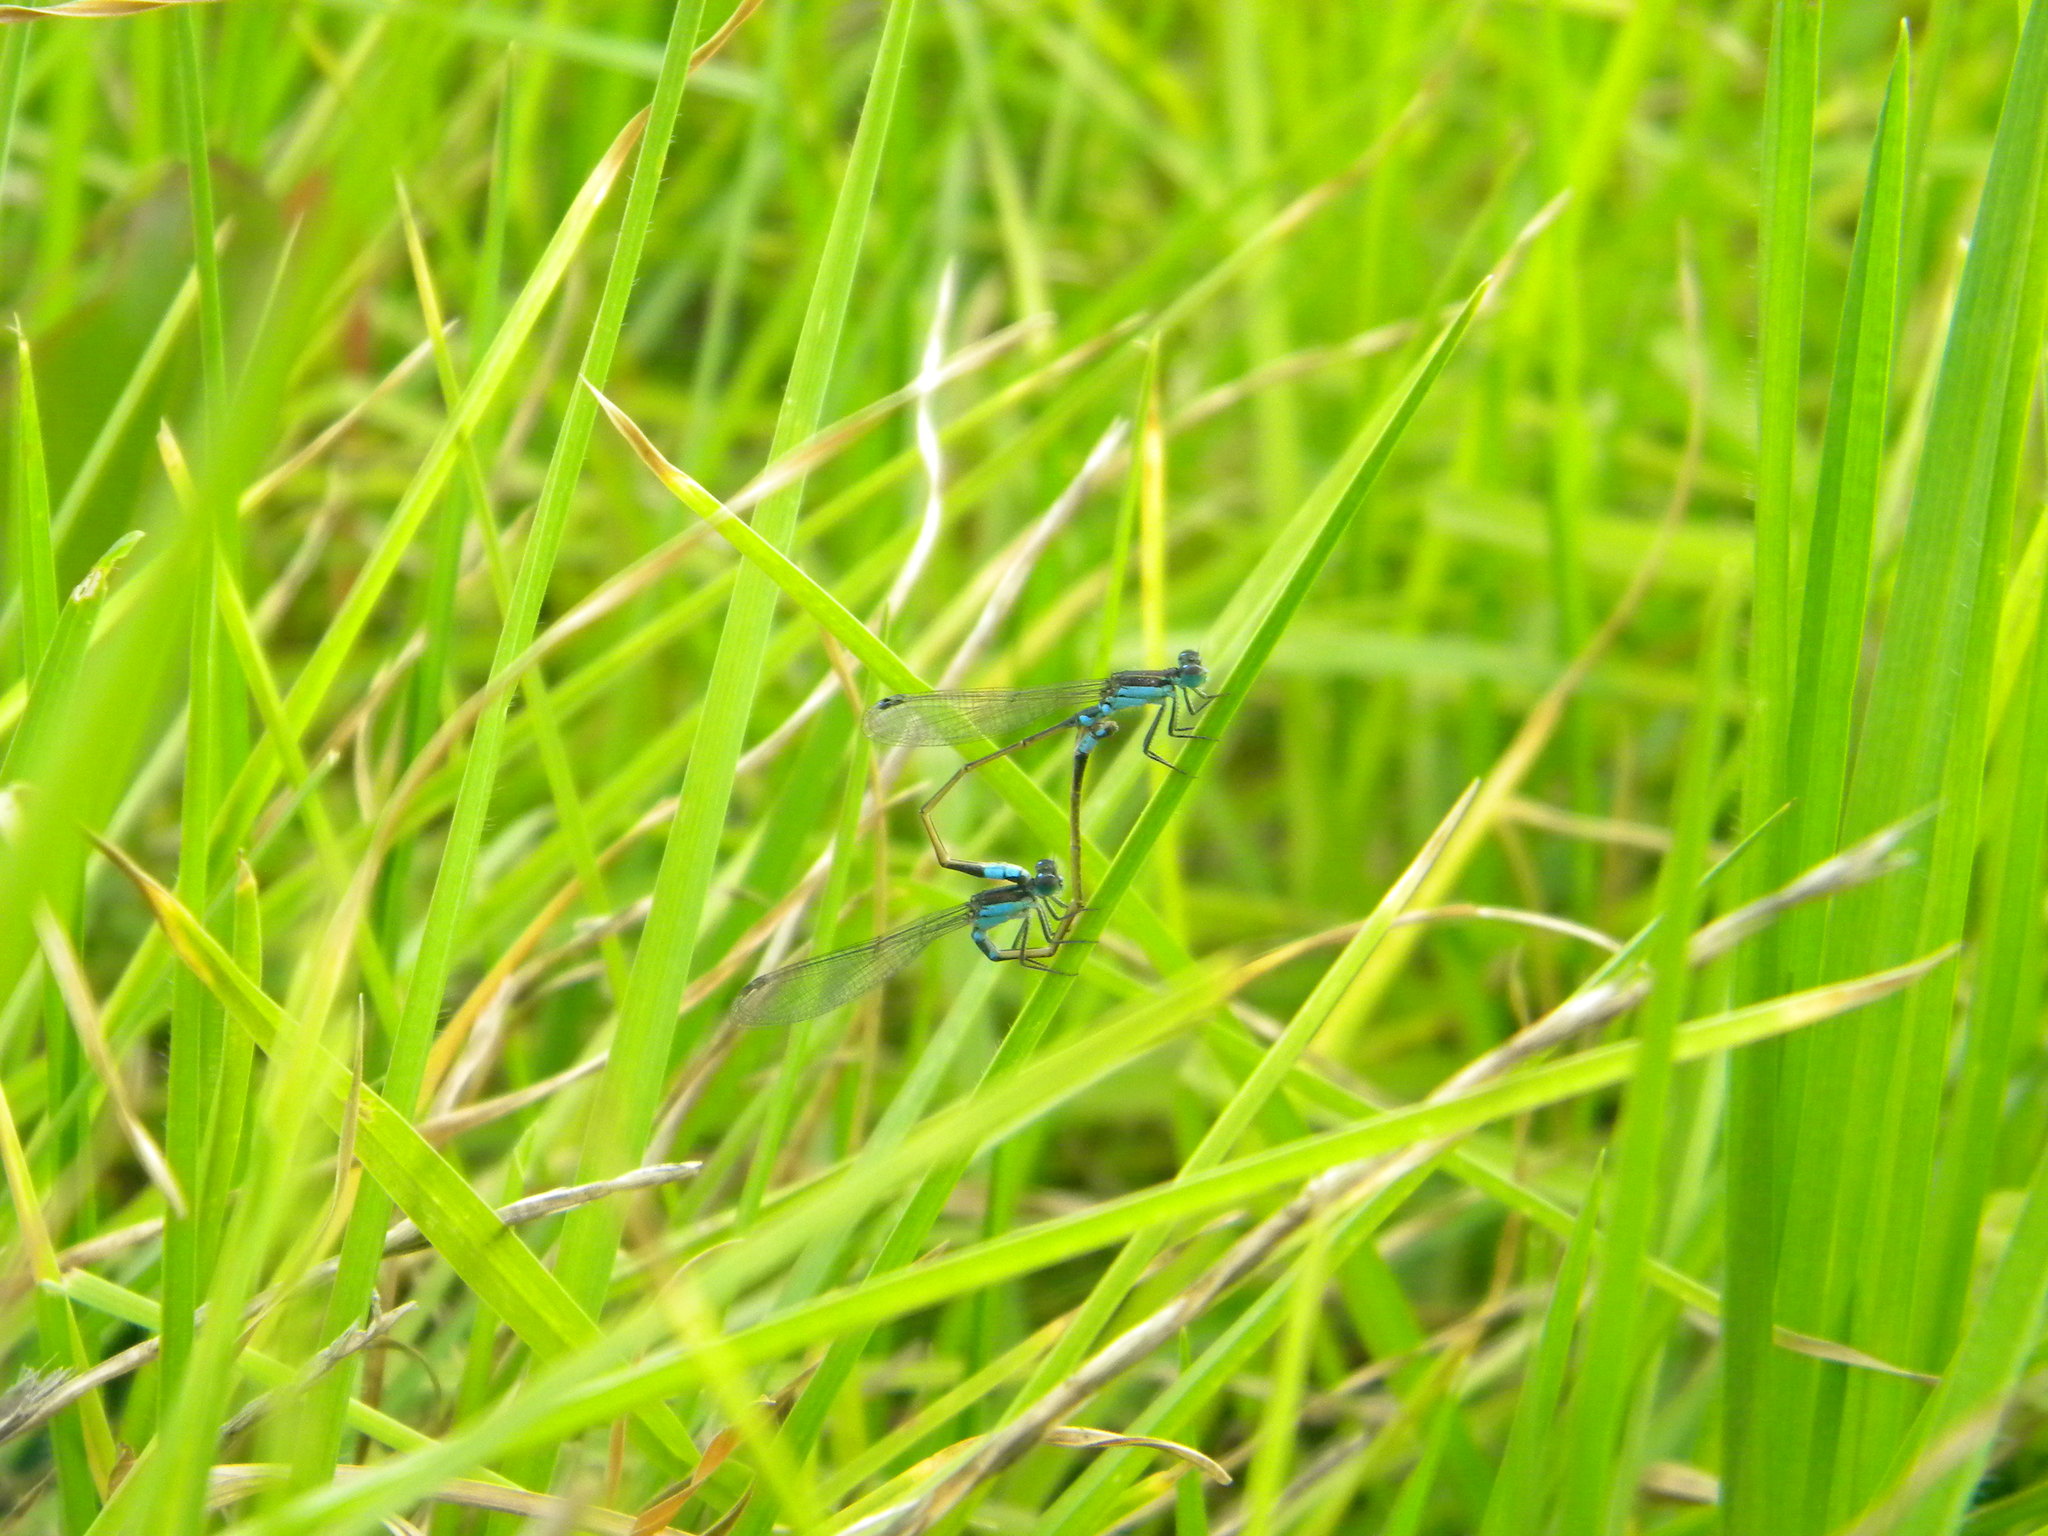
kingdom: Animalia
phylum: Arthropoda
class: Insecta
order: Odonata
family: Coenagrionidae
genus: Ischnura
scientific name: Ischnura senegalensis
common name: Tropical bluetail
